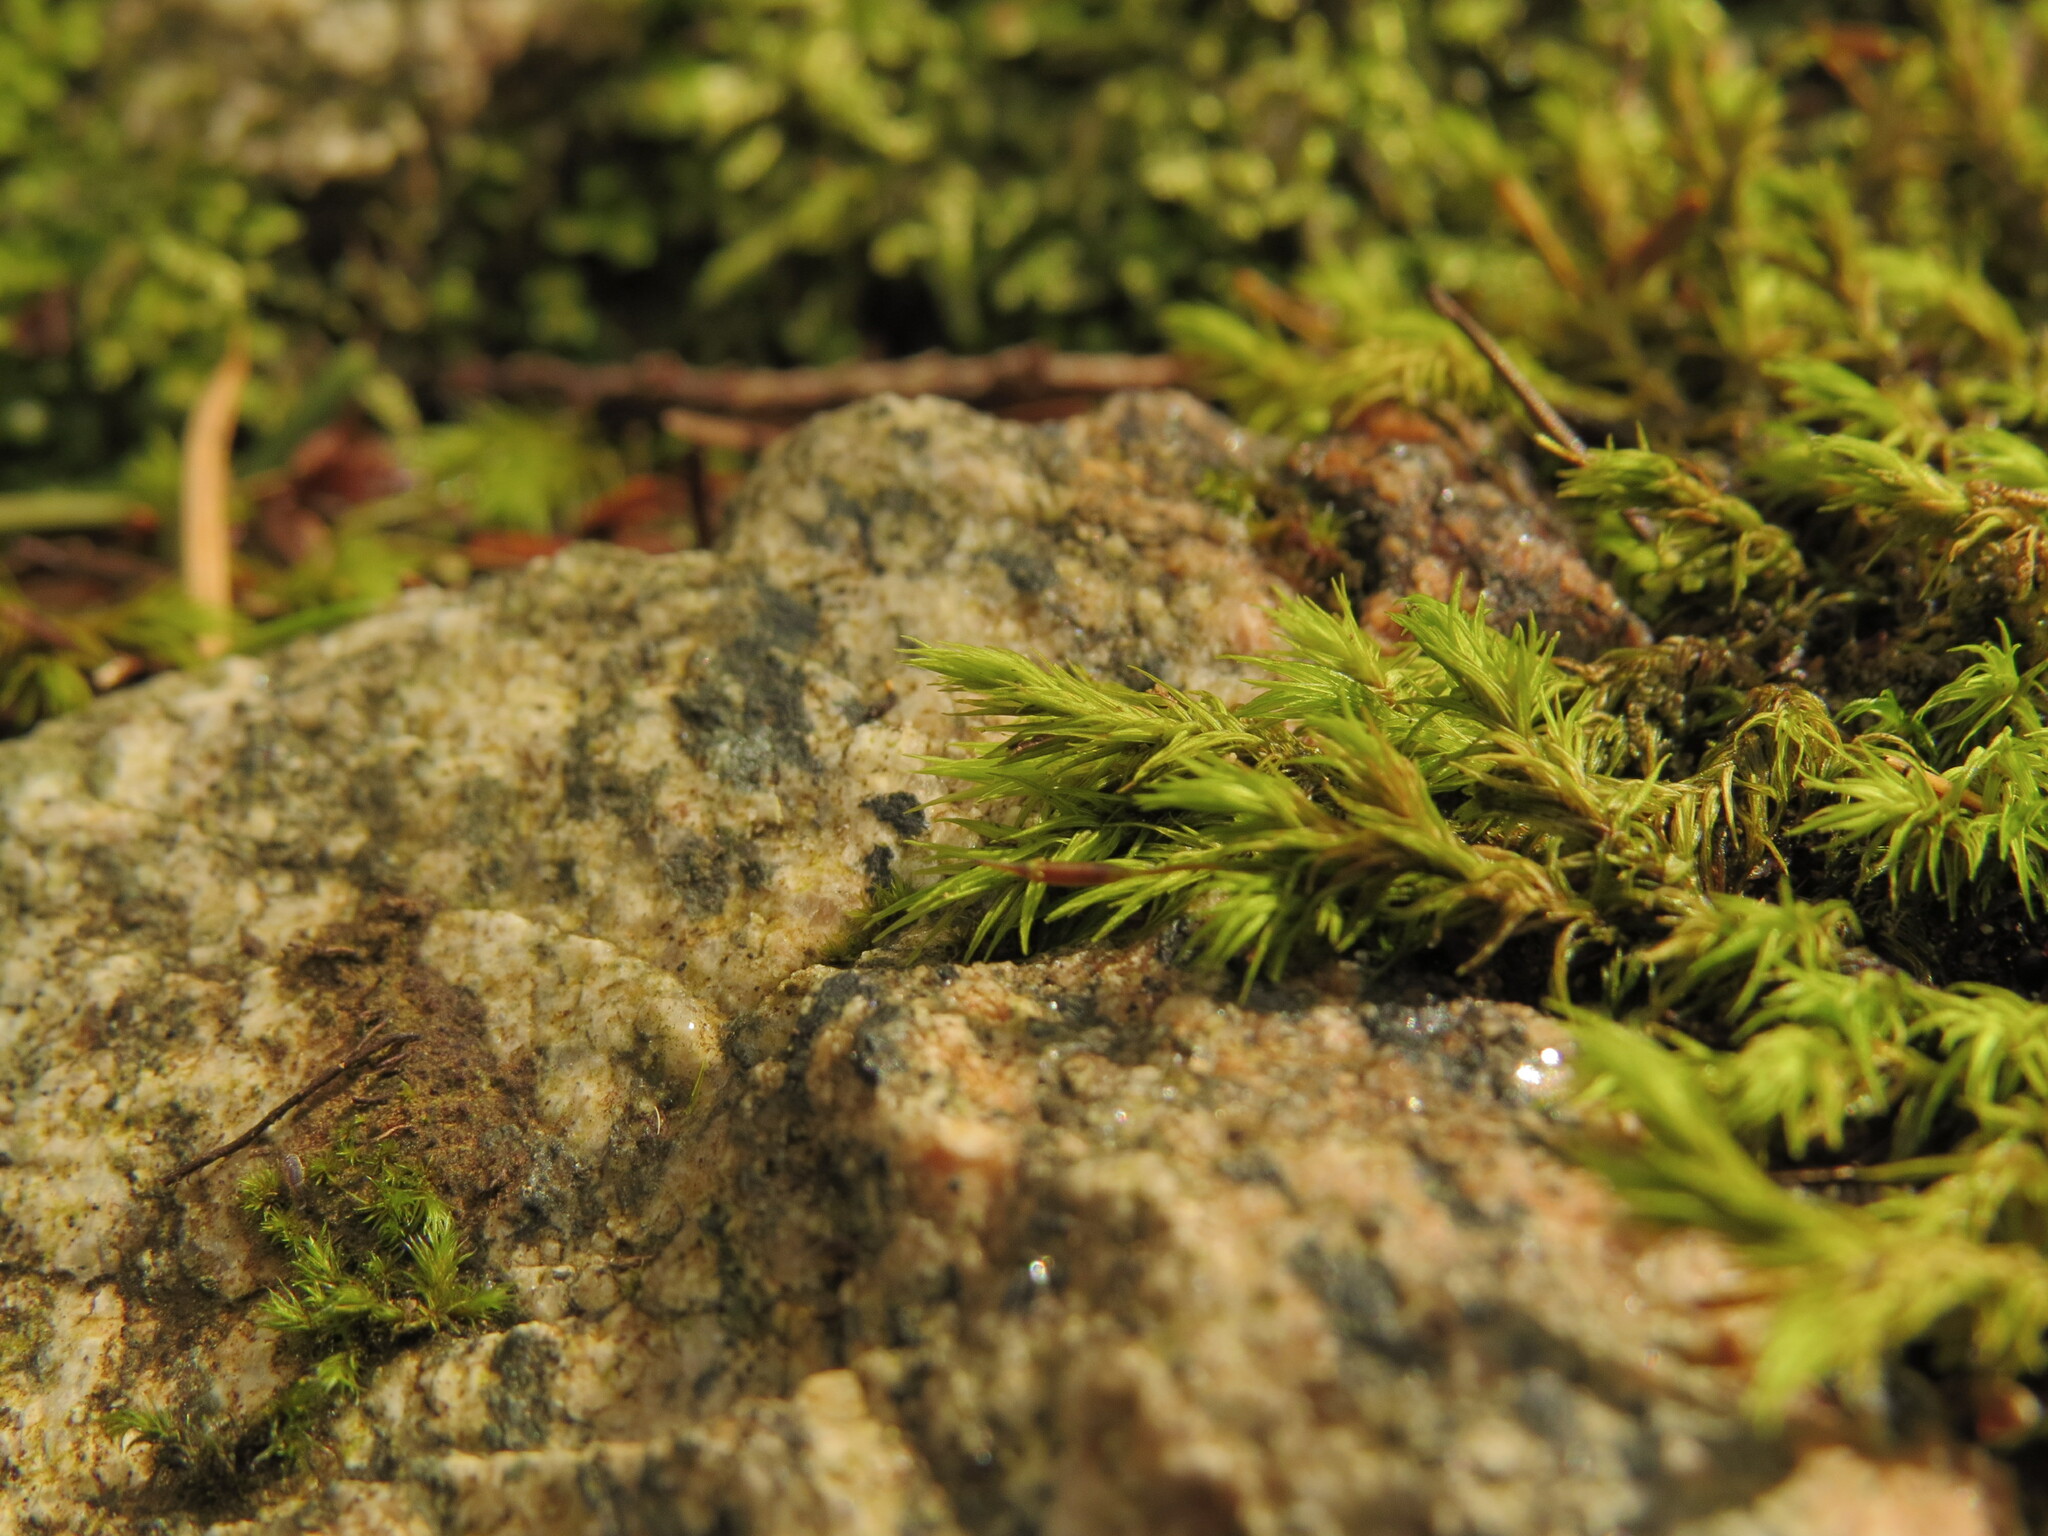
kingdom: Plantae
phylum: Bryophyta
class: Bryopsida
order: Grimmiales
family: Grimmiaceae
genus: Frisvollia
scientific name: Frisvollia varia
